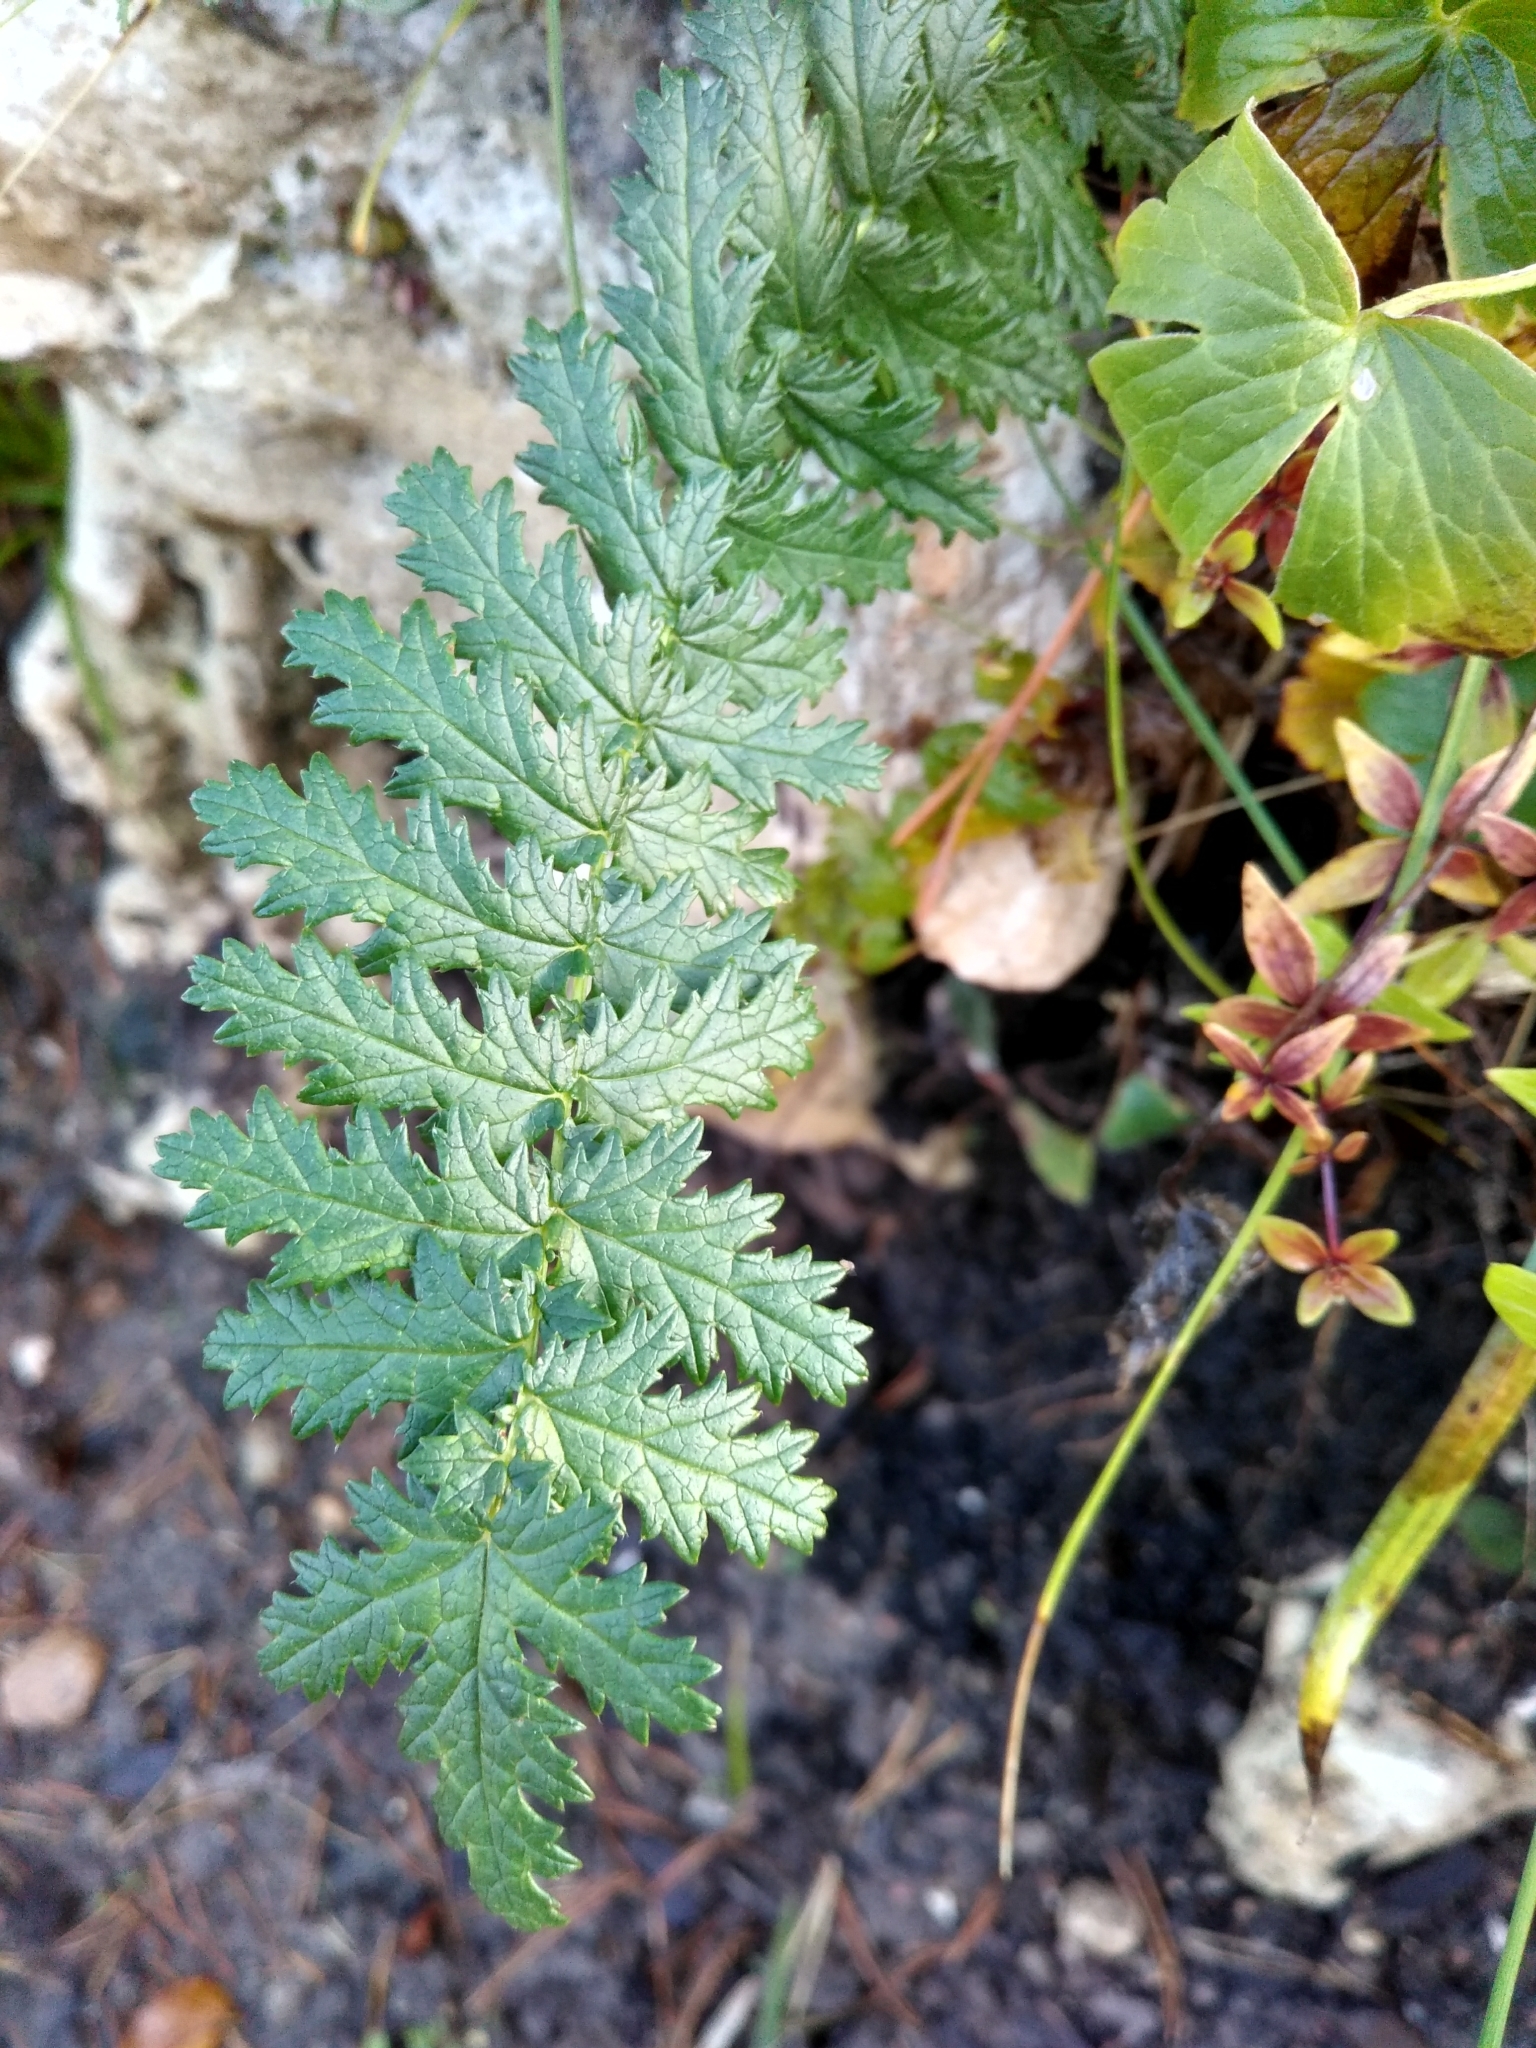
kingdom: Plantae
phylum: Tracheophyta
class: Magnoliopsida
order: Rosales
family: Rosaceae
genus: Filipendula
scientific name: Filipendula vulgaris
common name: Dropwort
